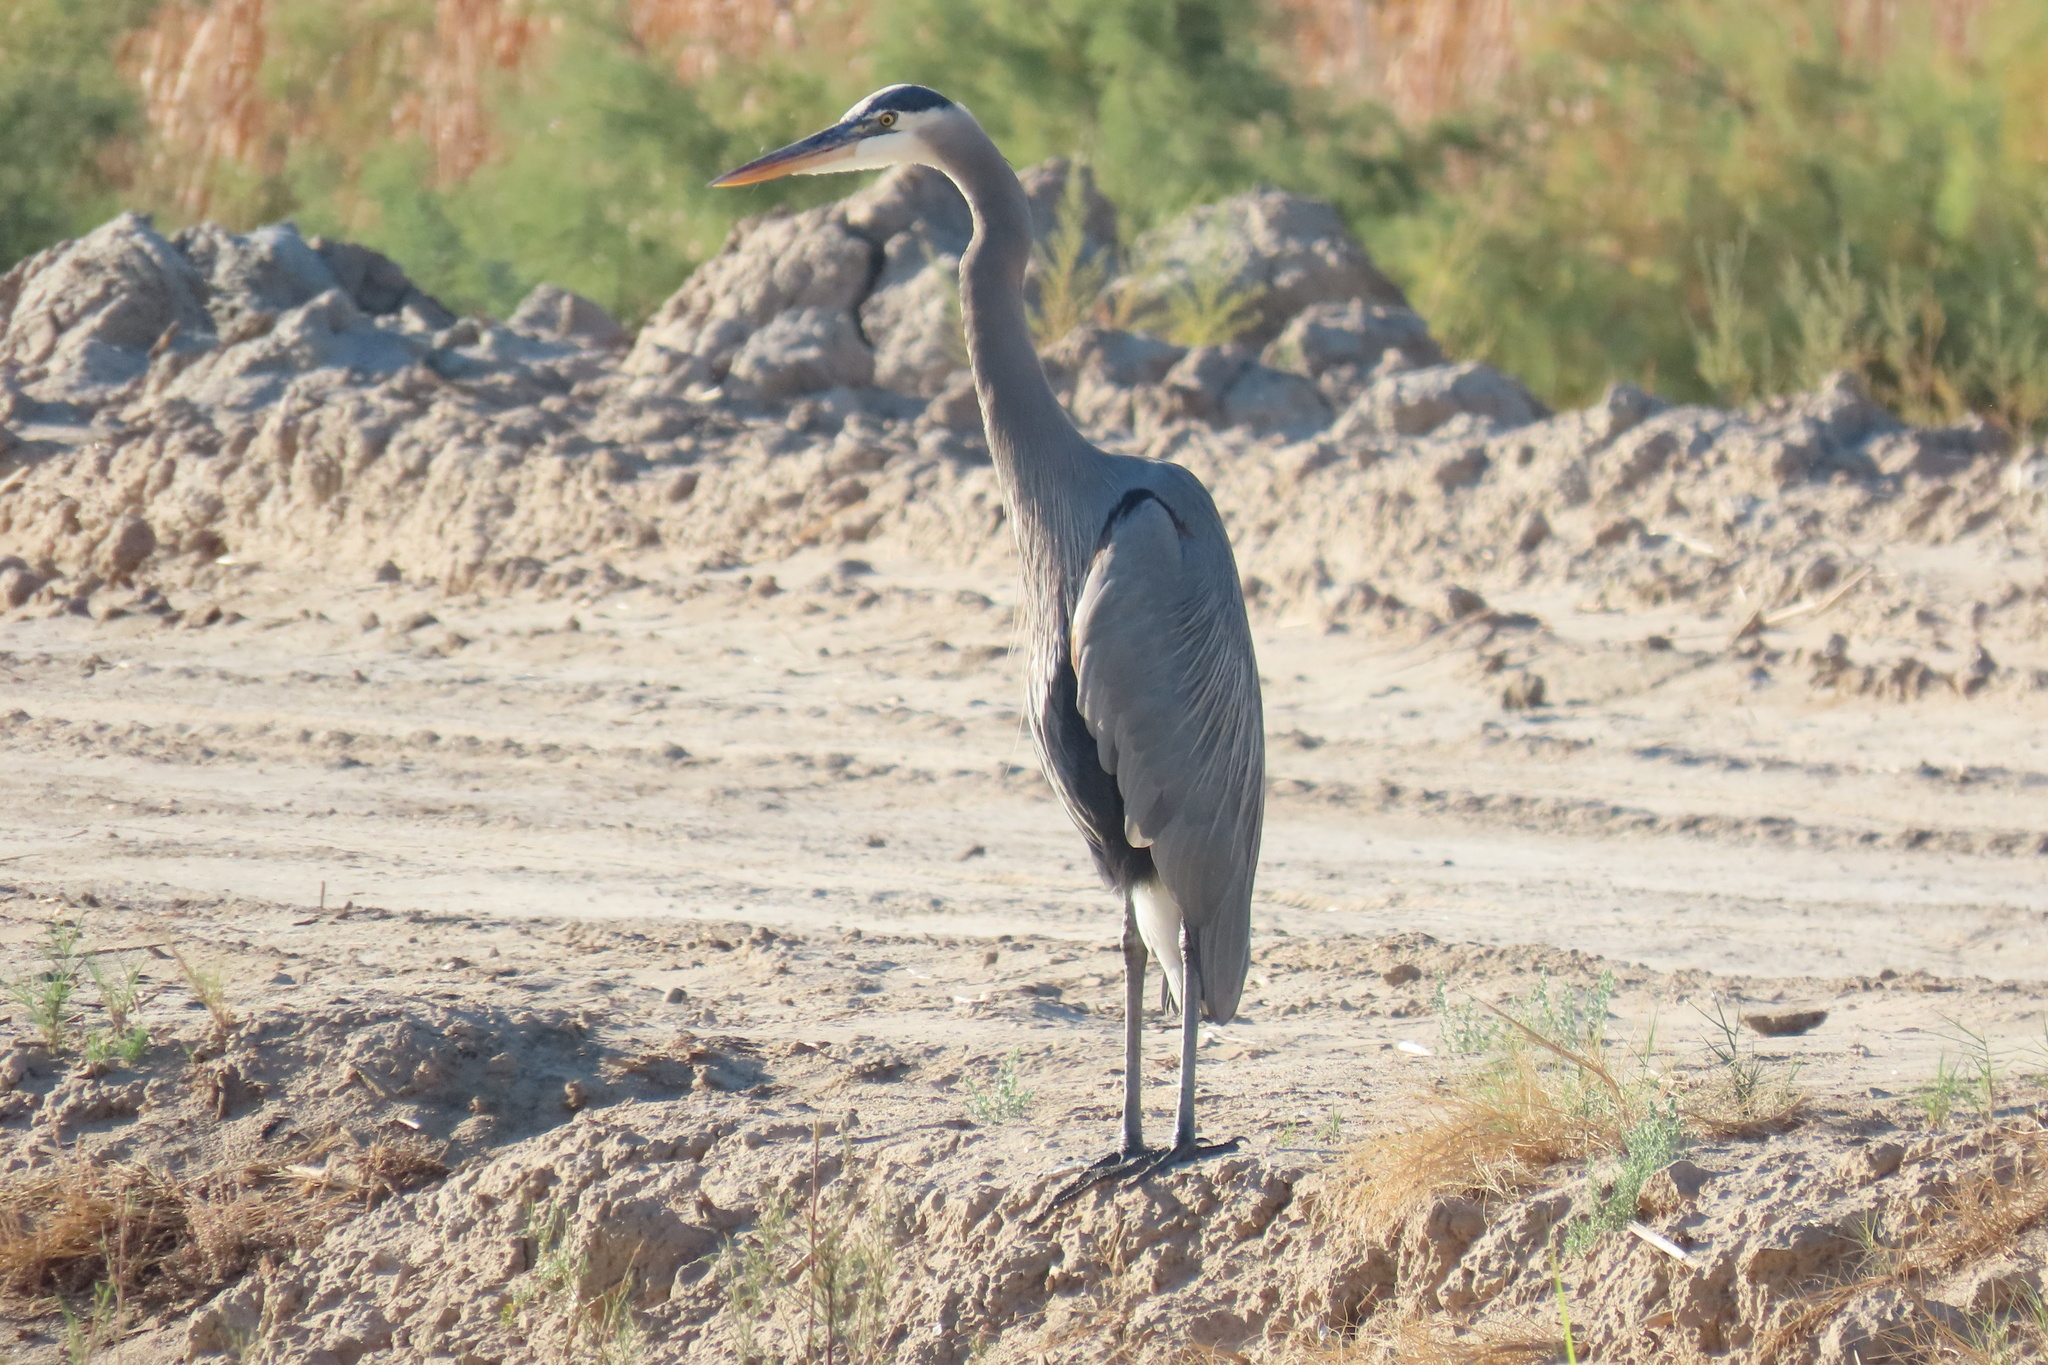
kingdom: Animalia
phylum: Chordata
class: Aves
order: Pelecaniformes
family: Ardeidae
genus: Ardea
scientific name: Ardea herodias
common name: Great blue heron
